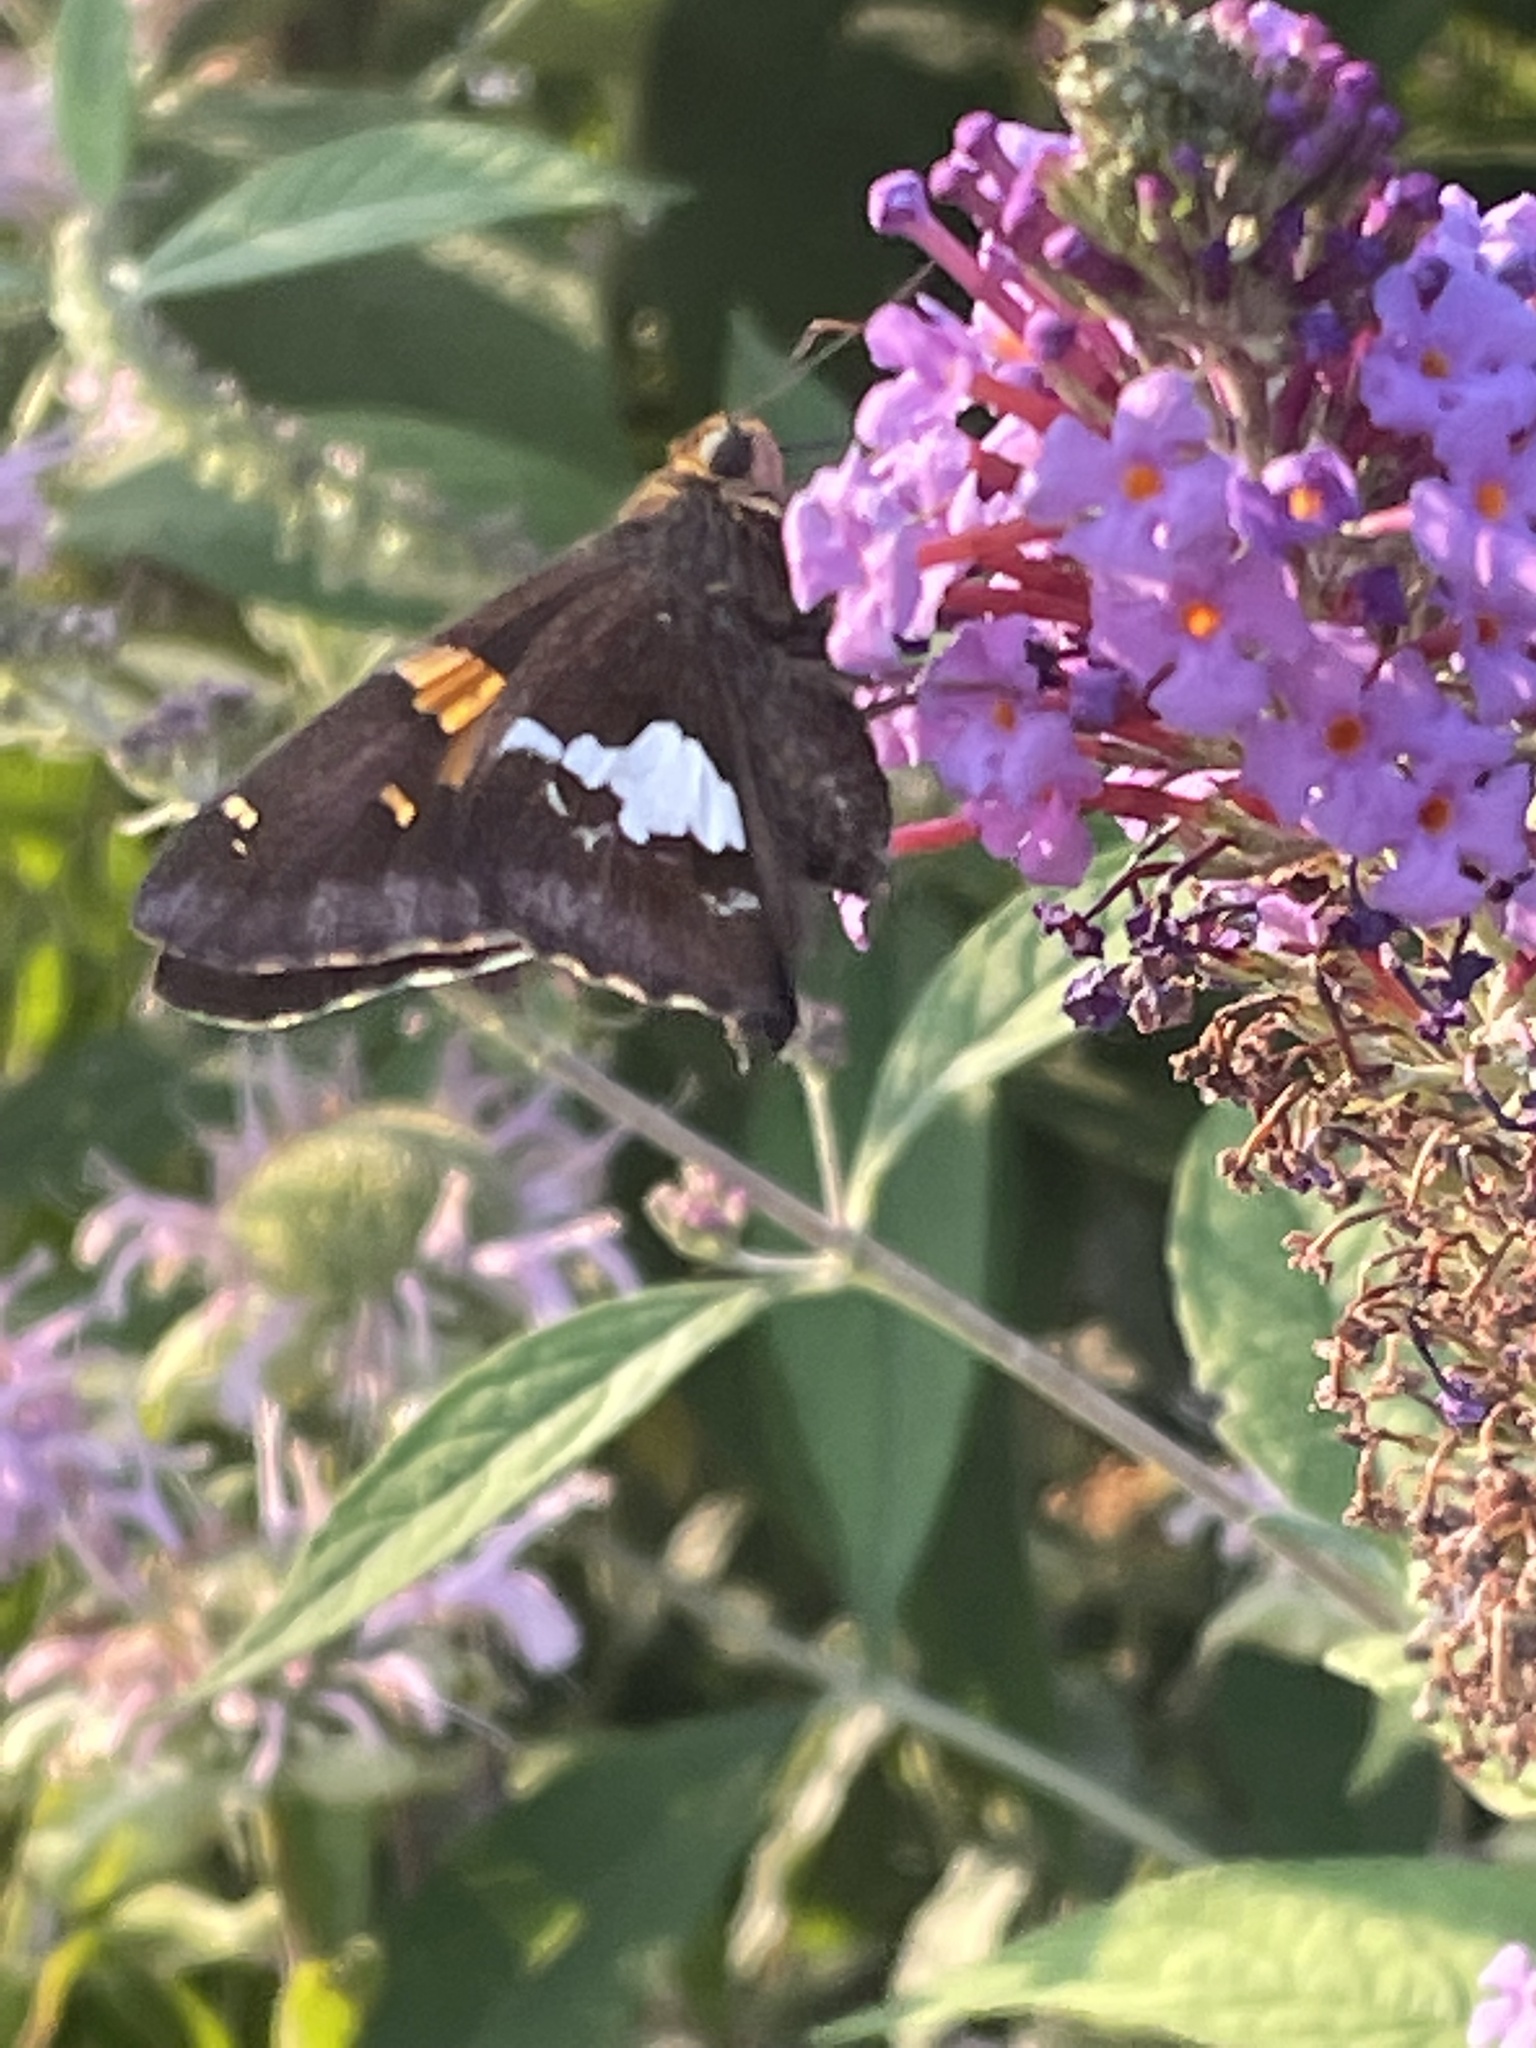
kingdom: Animalia
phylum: Arthropoda
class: Insecta
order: Lepidoptera
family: Hesperiidae
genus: Epargyreus
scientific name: Epargyreus clarus
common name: Silver-spotted skipper
